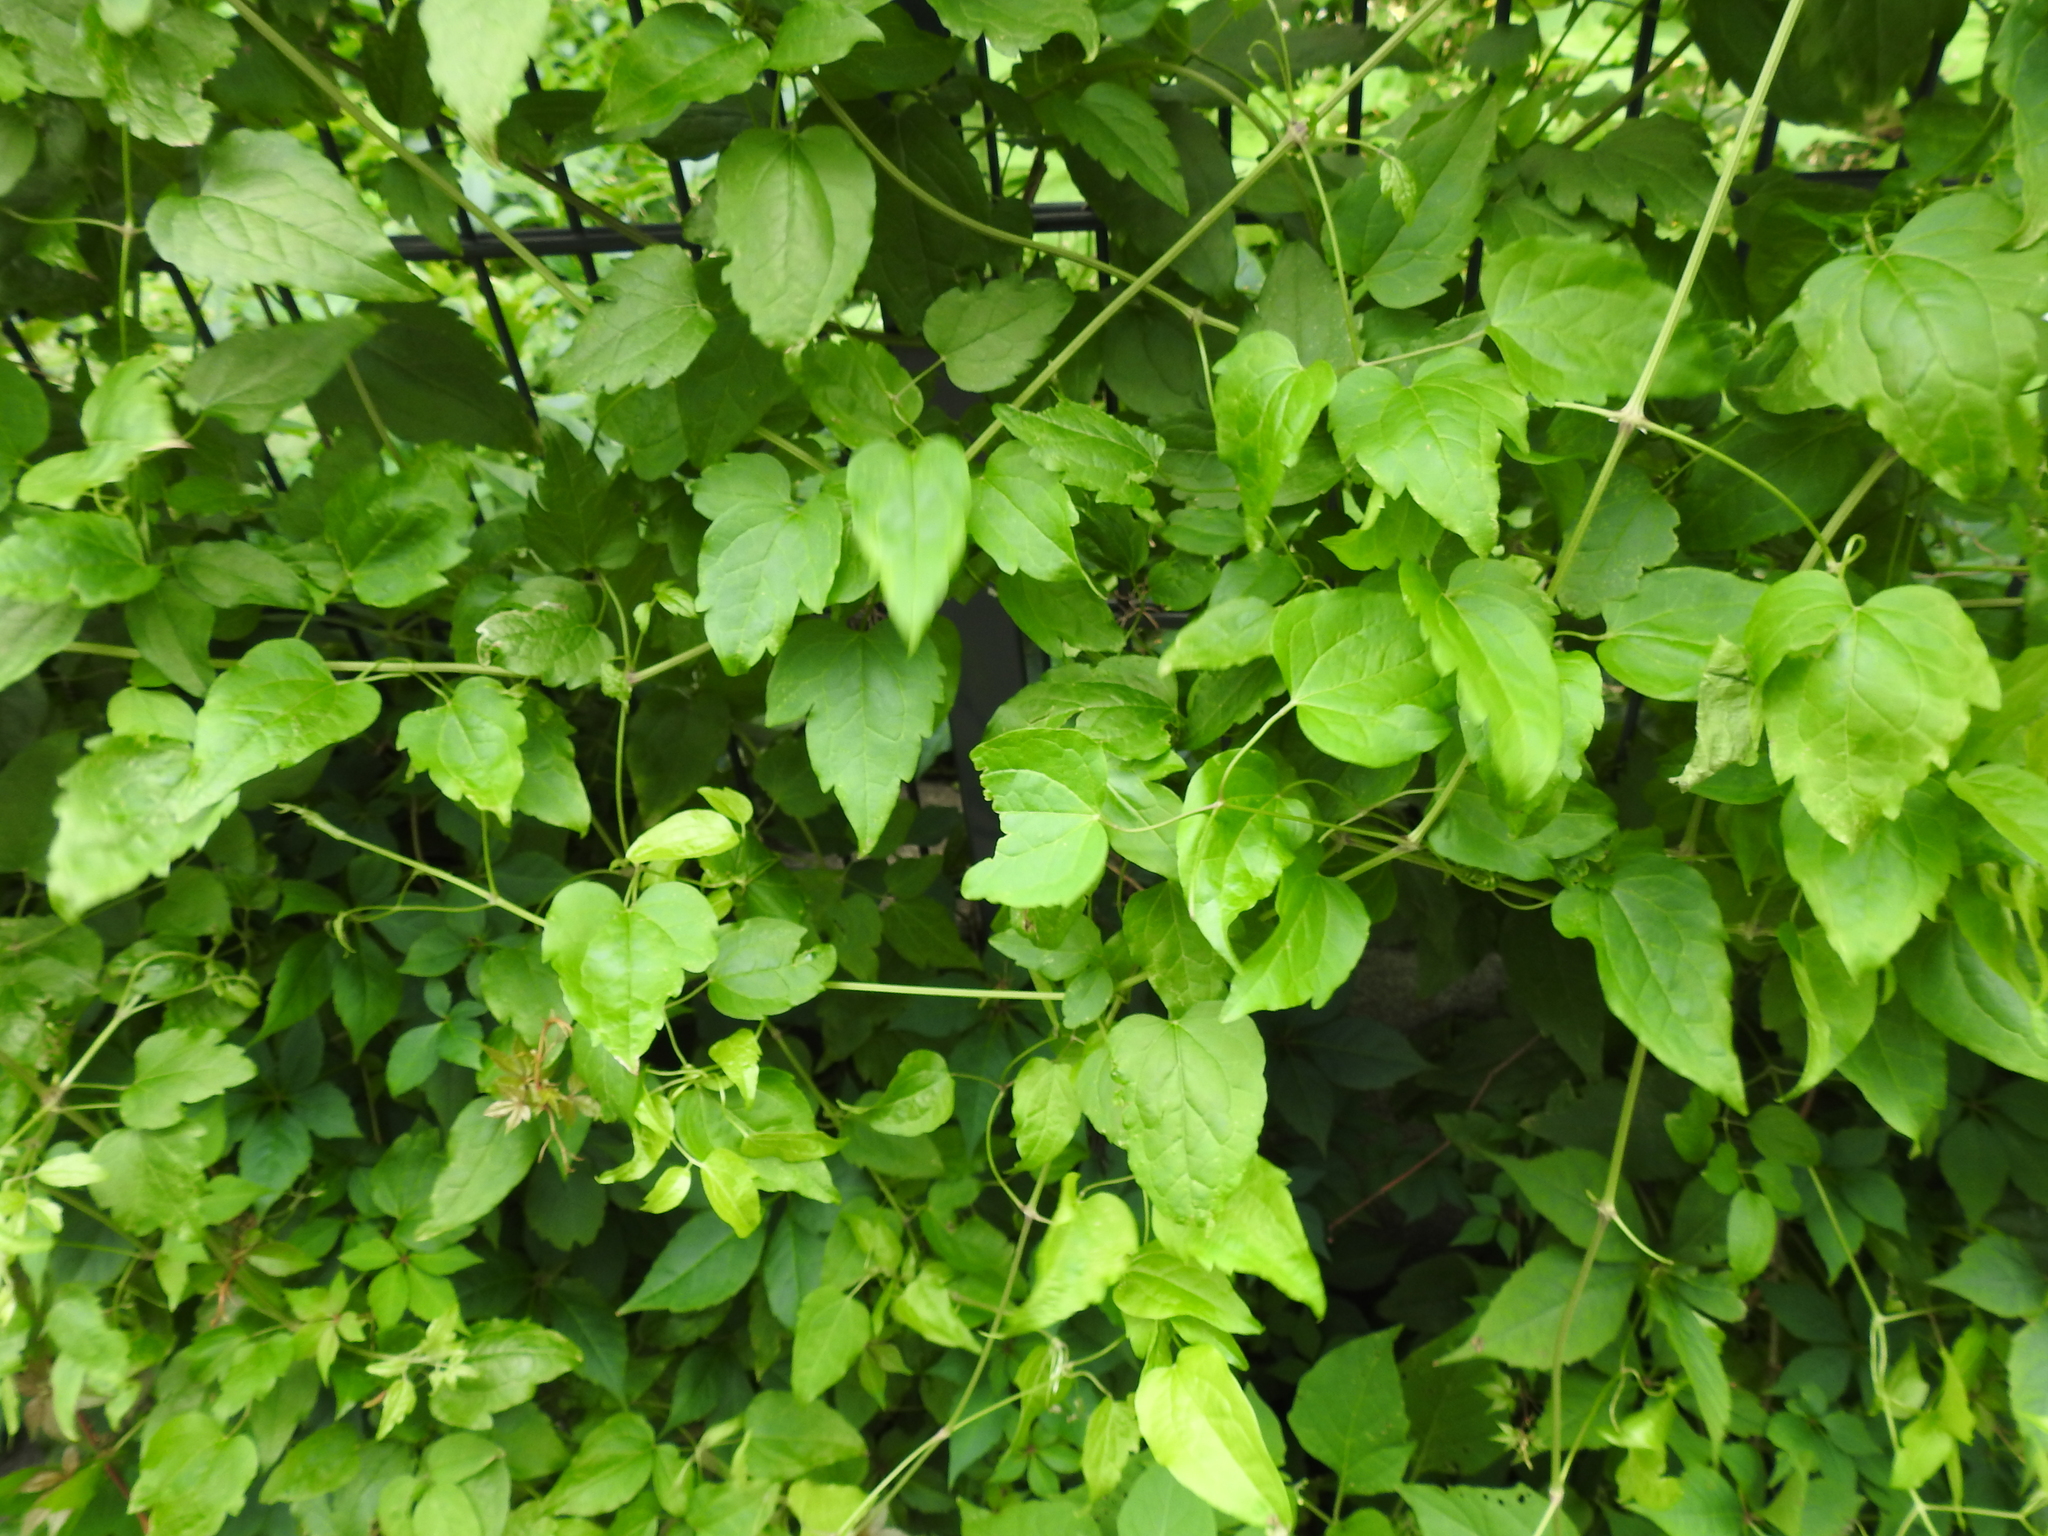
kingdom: Plantae
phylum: Tracheophyta
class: Magnoliopsida
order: Ranunculales
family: Ranunculaceae
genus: Clematis
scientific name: Clematis vitalba
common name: Evergreen clematis
